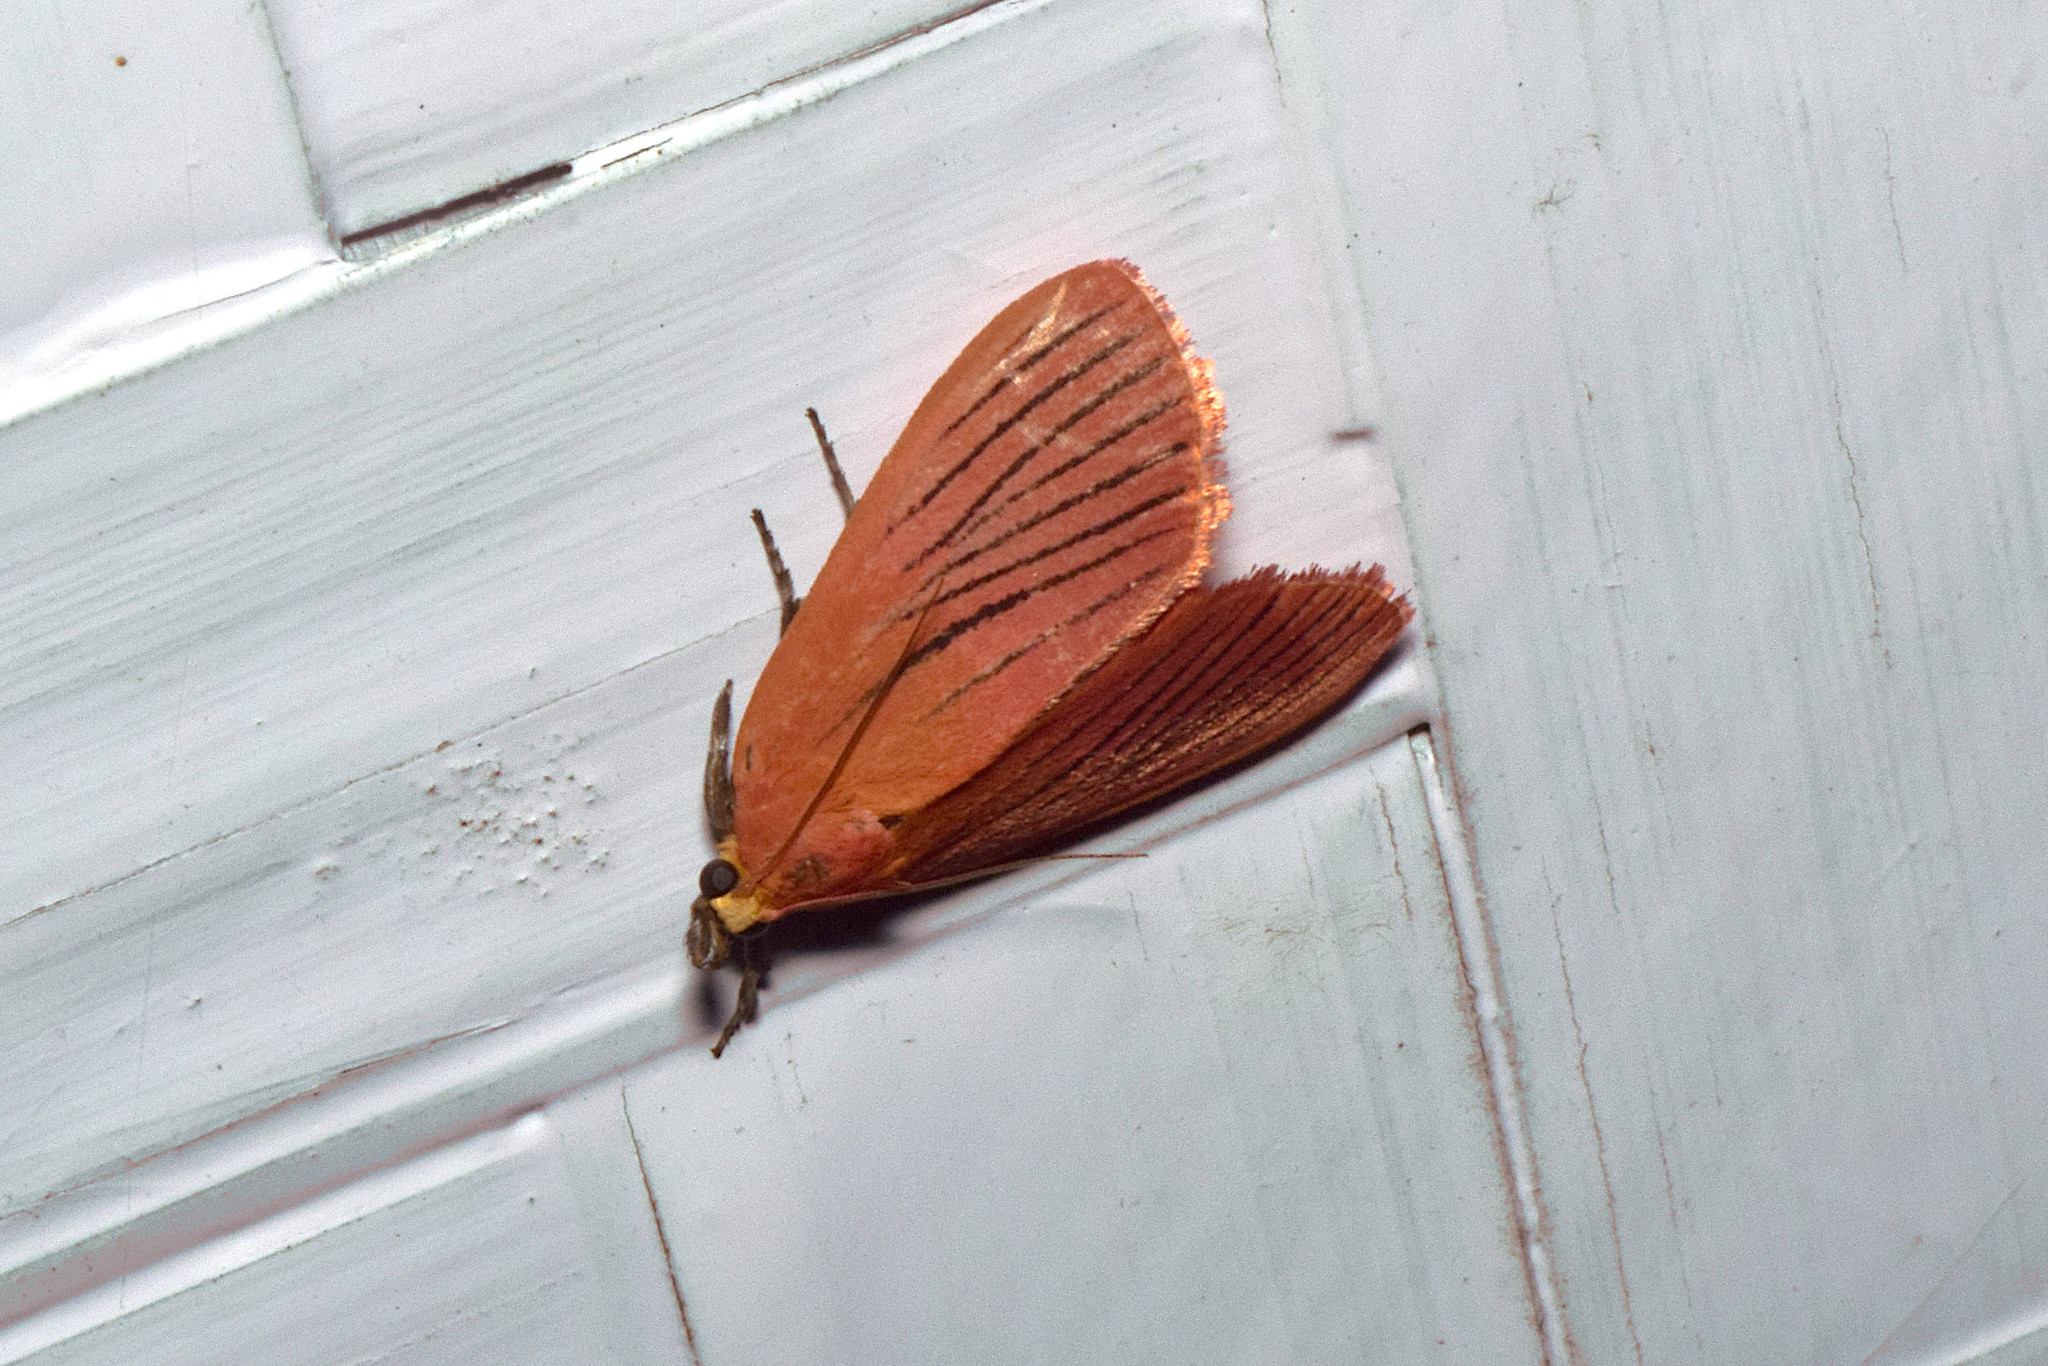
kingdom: Animalia
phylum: Arthropoda
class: Insecta
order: Lepidoptera
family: Pyralidae
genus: Arctioblepsis
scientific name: Arctioblepsis rubida
